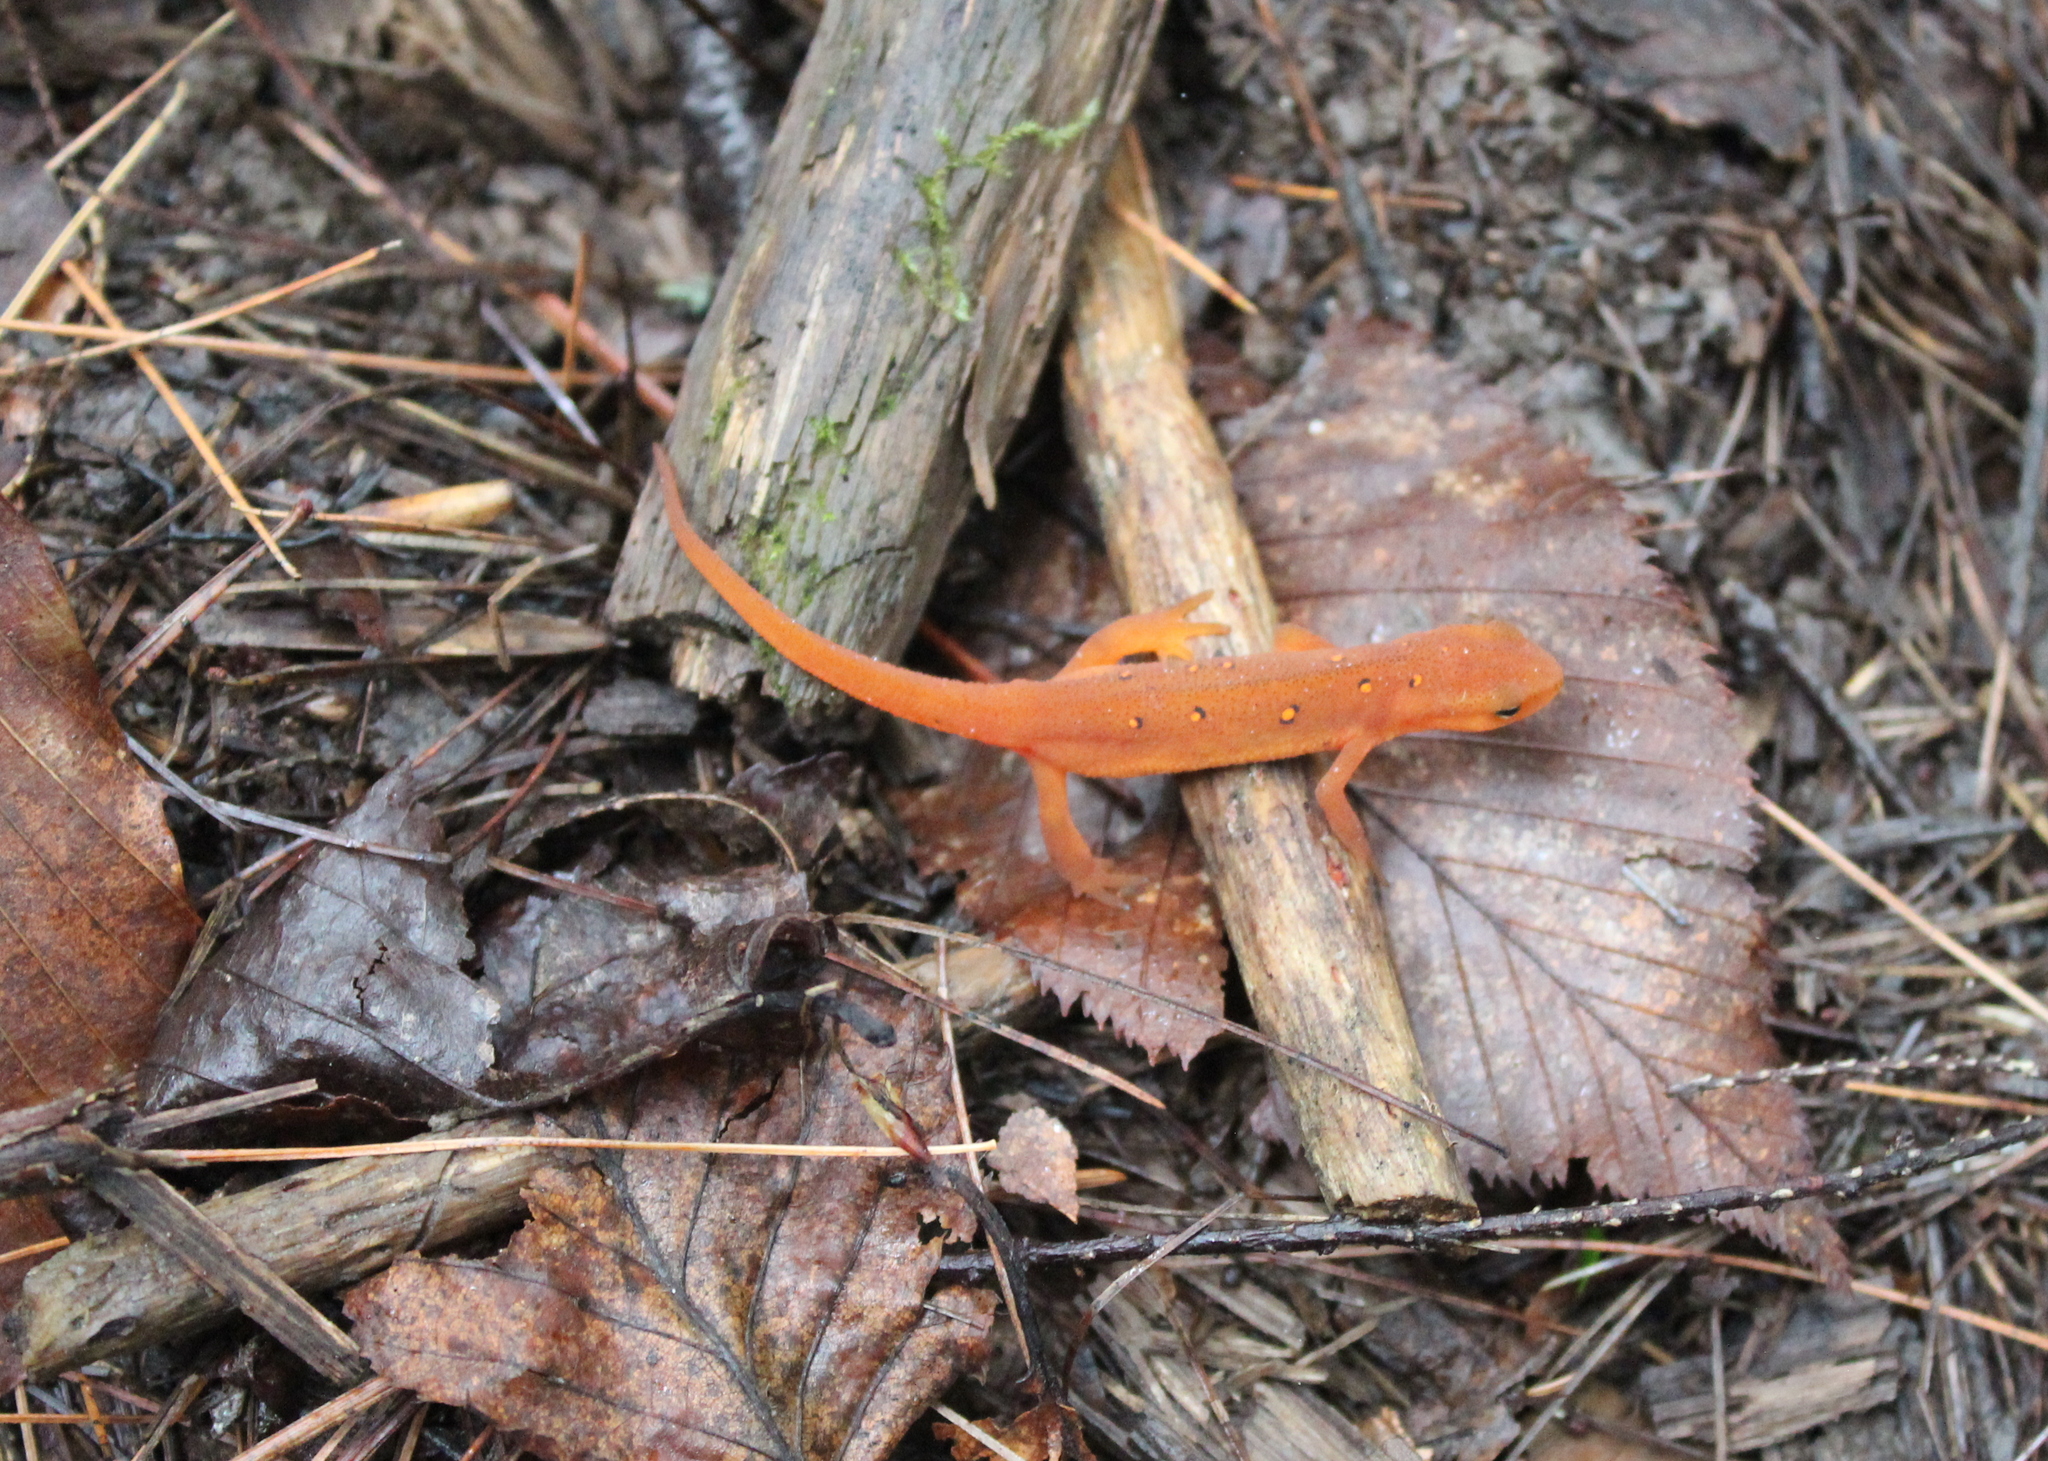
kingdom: Animalia
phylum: Chordata
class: Amphibia
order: Caudata
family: Salamandridae
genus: Notophthalmus
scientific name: Notophthalmus viridescens
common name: Eastern newt
